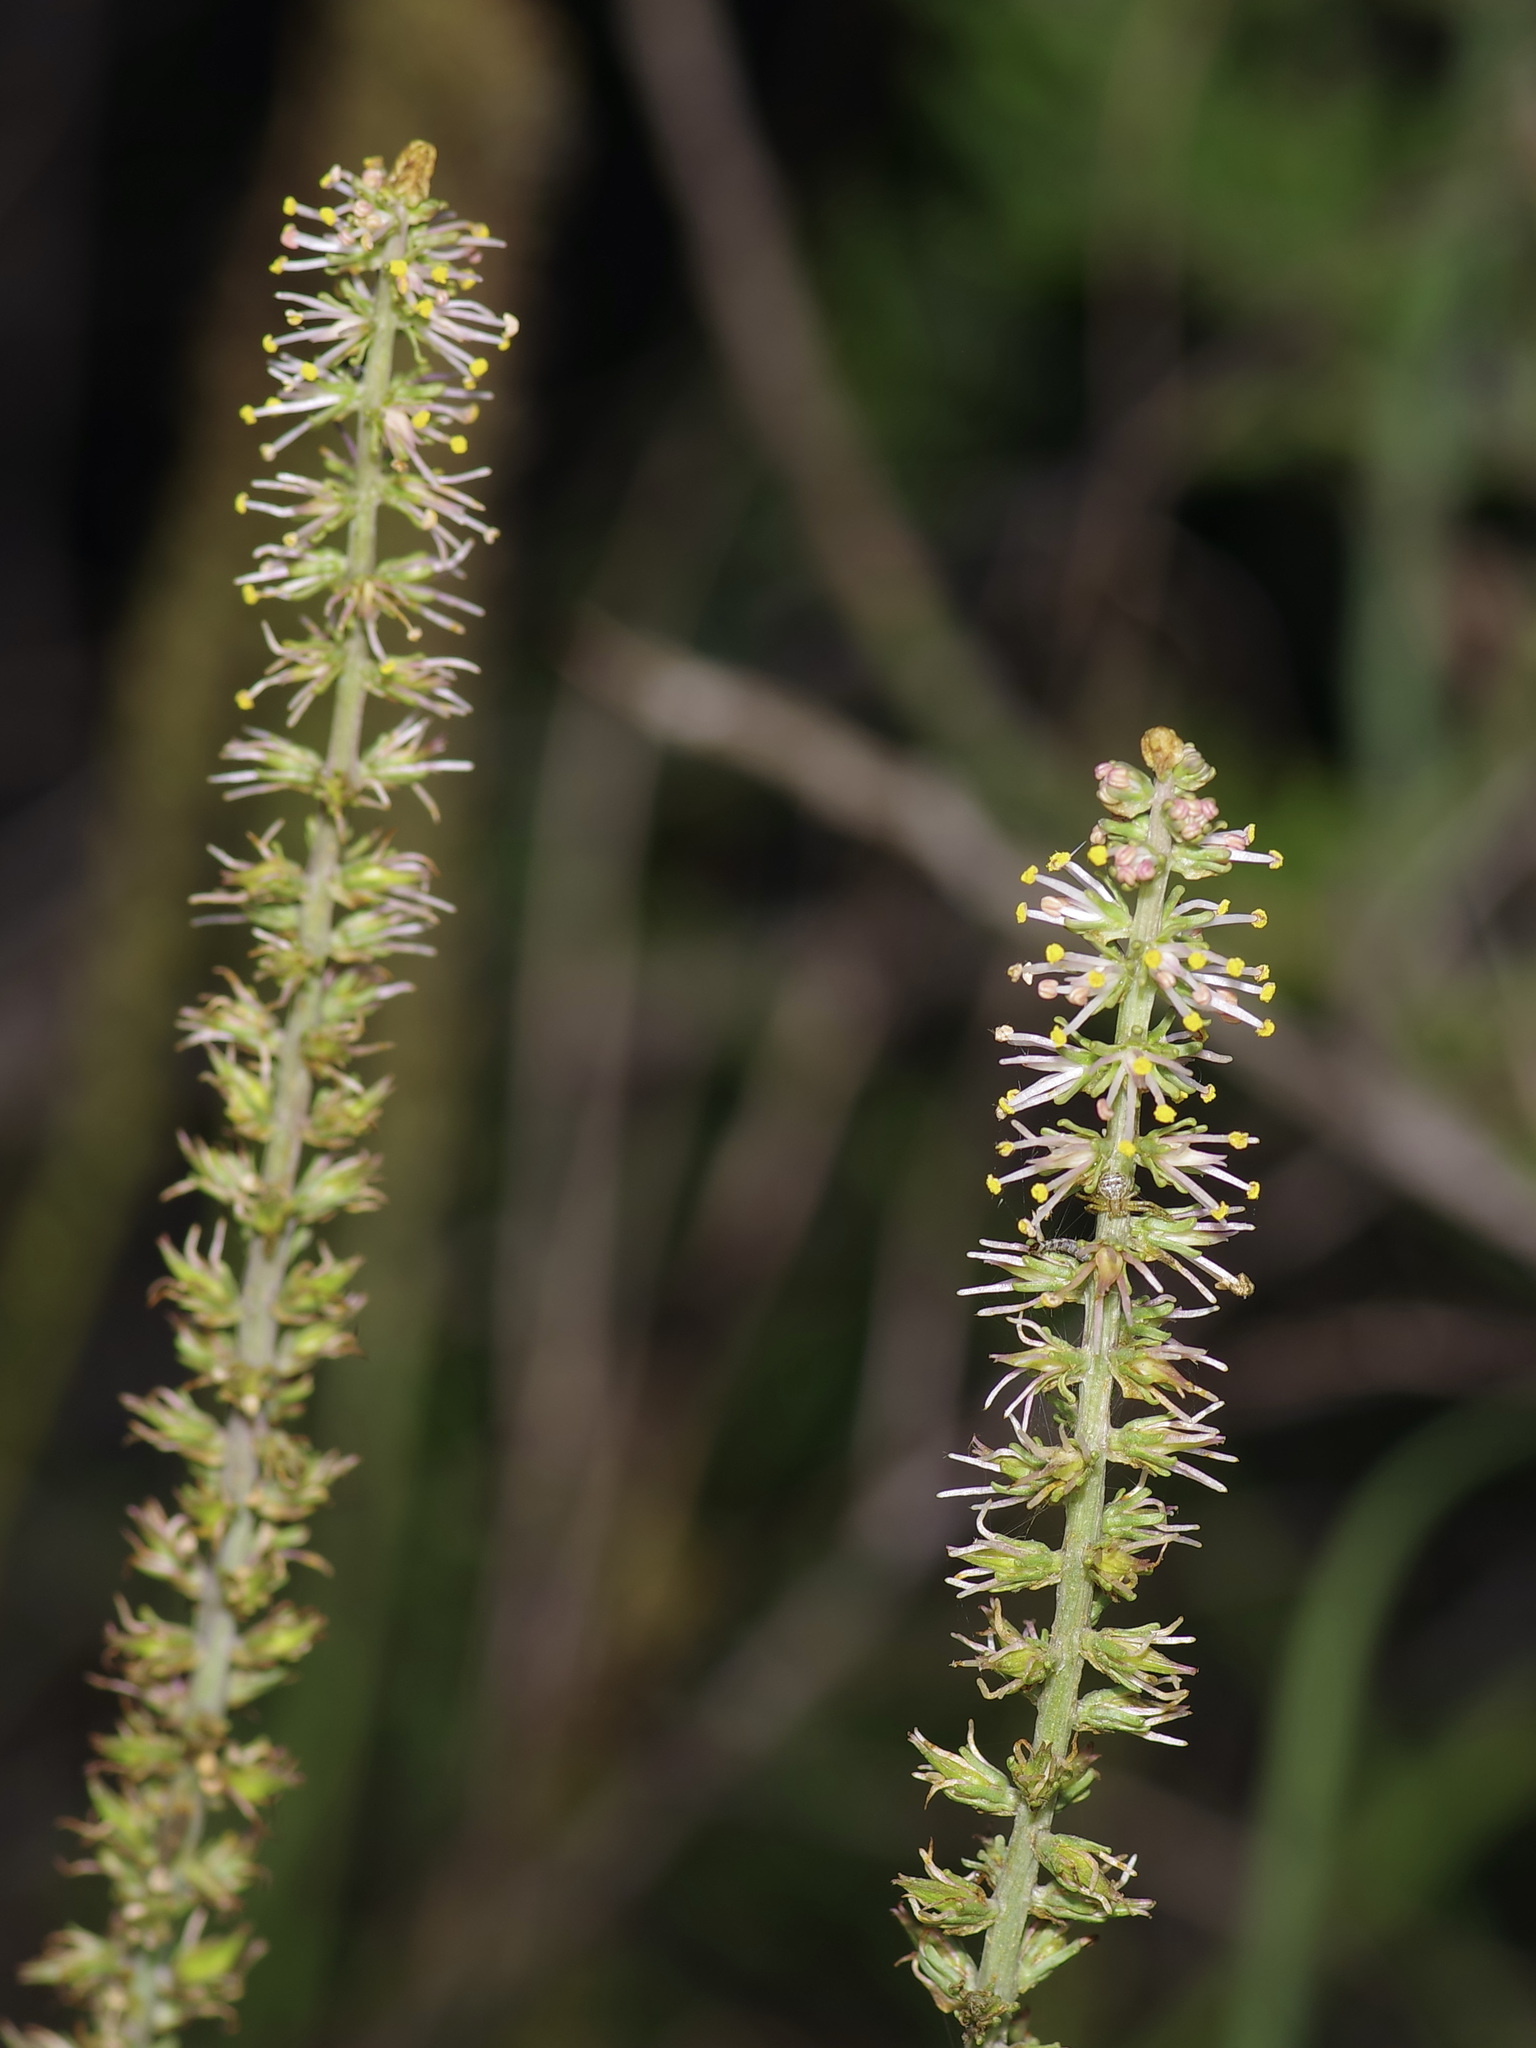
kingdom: Plantae
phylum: Tracheophyta
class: Liliopsida
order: Liliales
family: Melanthiaceae
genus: Schoenocaulon
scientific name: Schoenocaulon texanum
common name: Texas feather-shank
